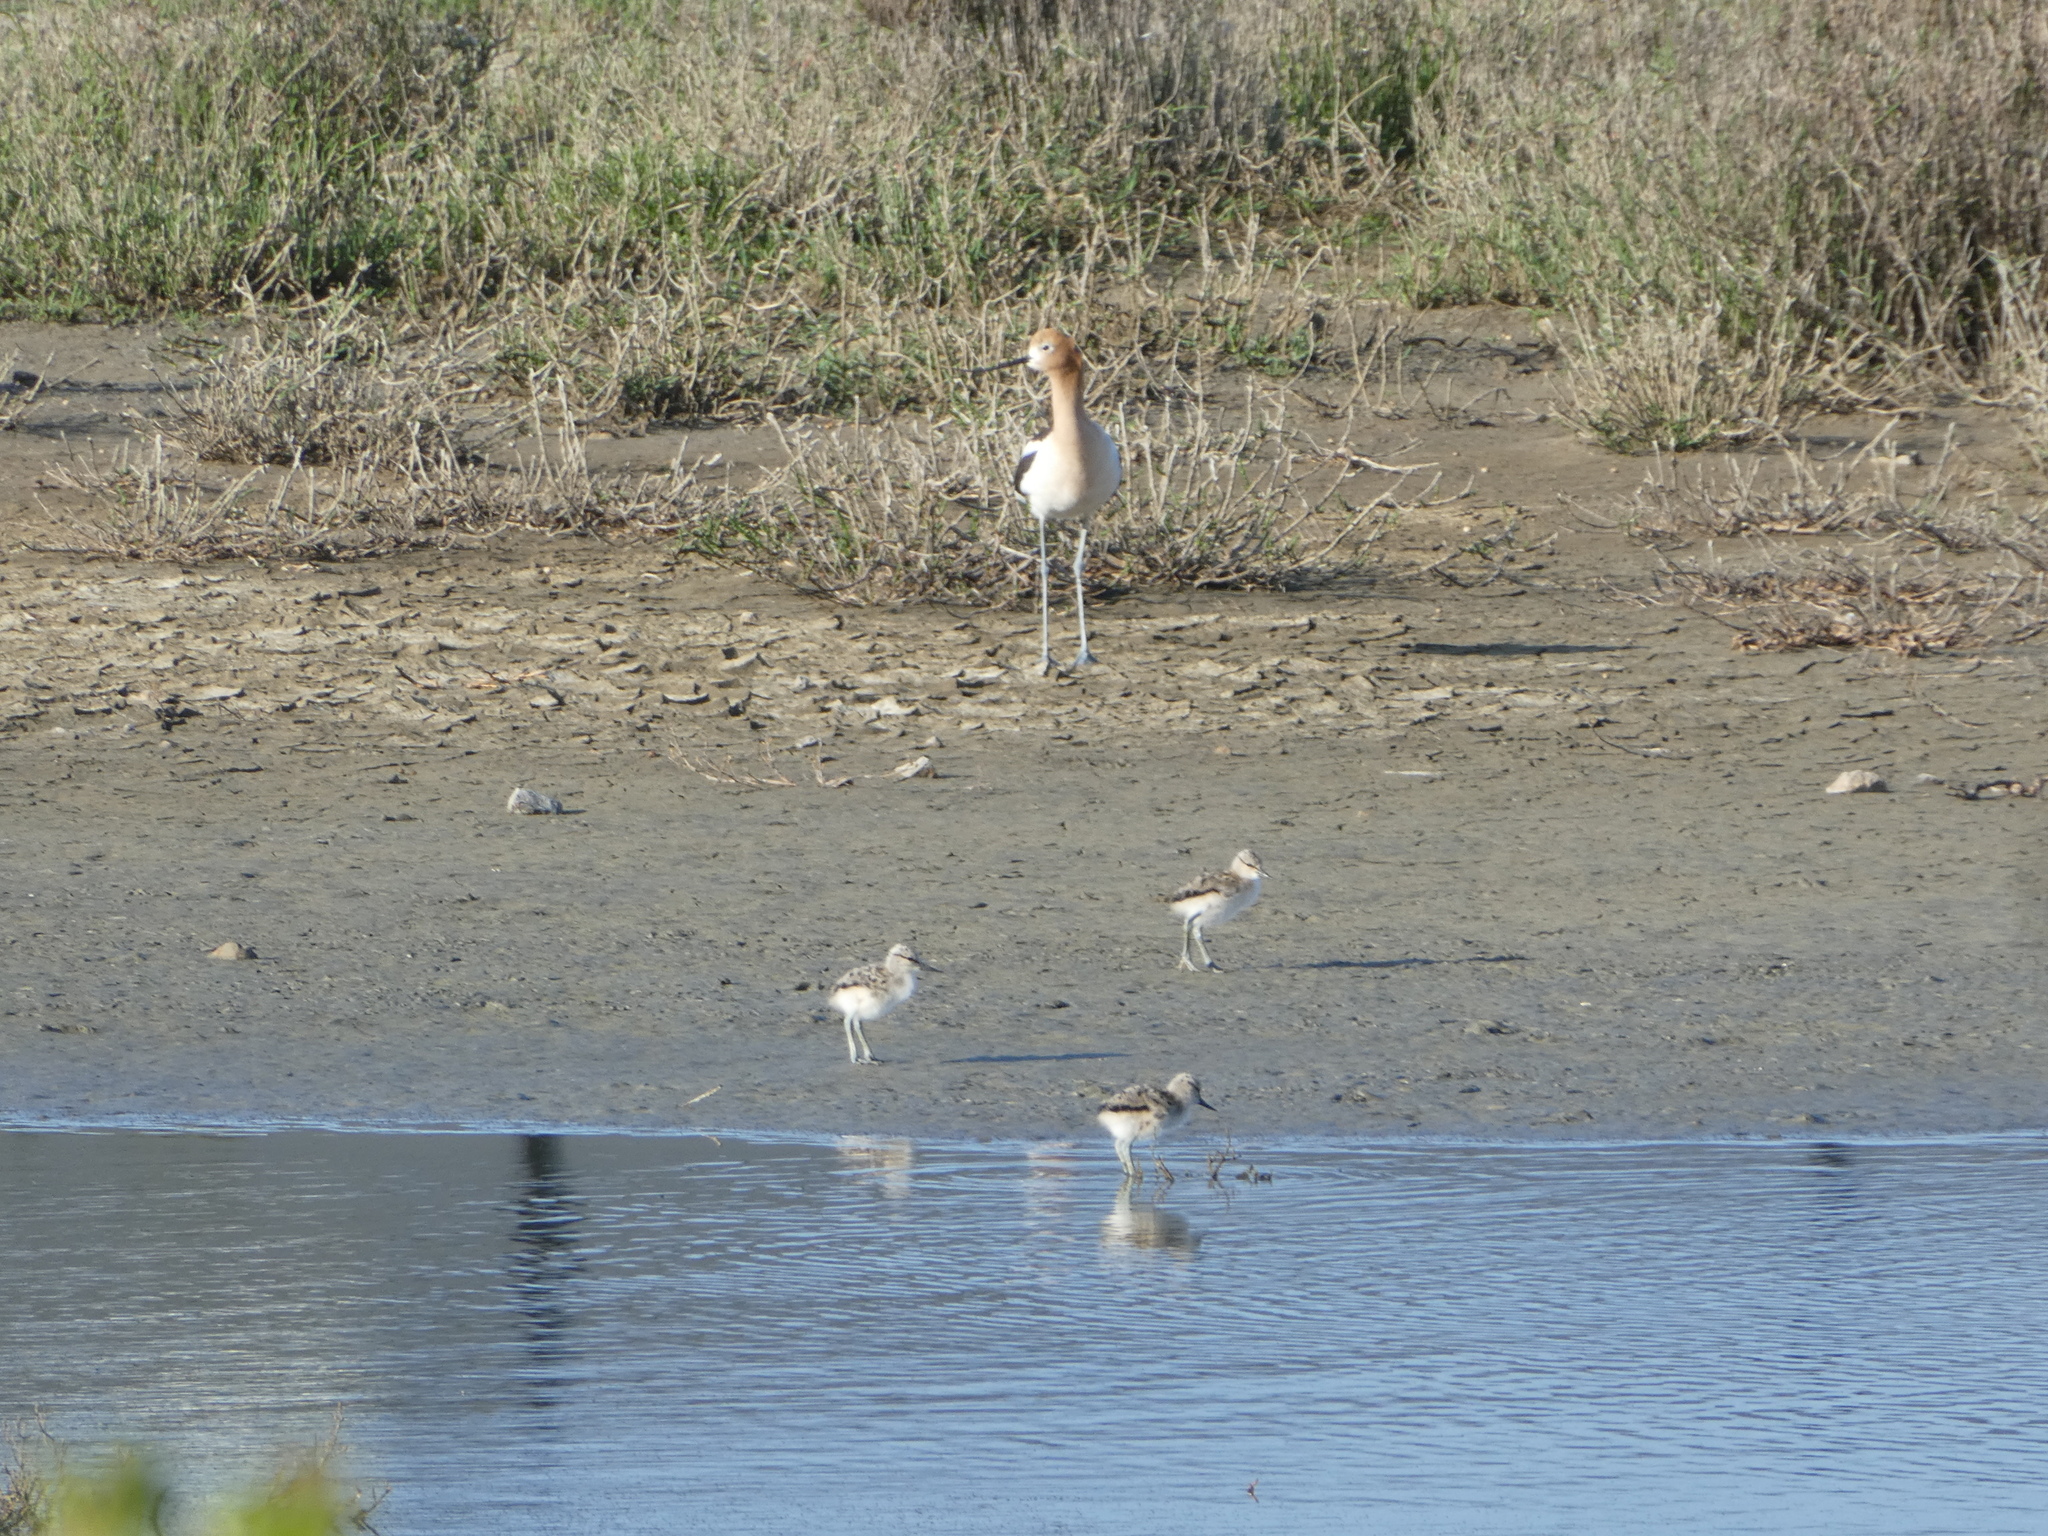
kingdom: Animalia
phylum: Chordata
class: Aves
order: Charadriiformes
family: Recurvirostridae
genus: Recurvirostra
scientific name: Recurvirostra americana
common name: American avocet
